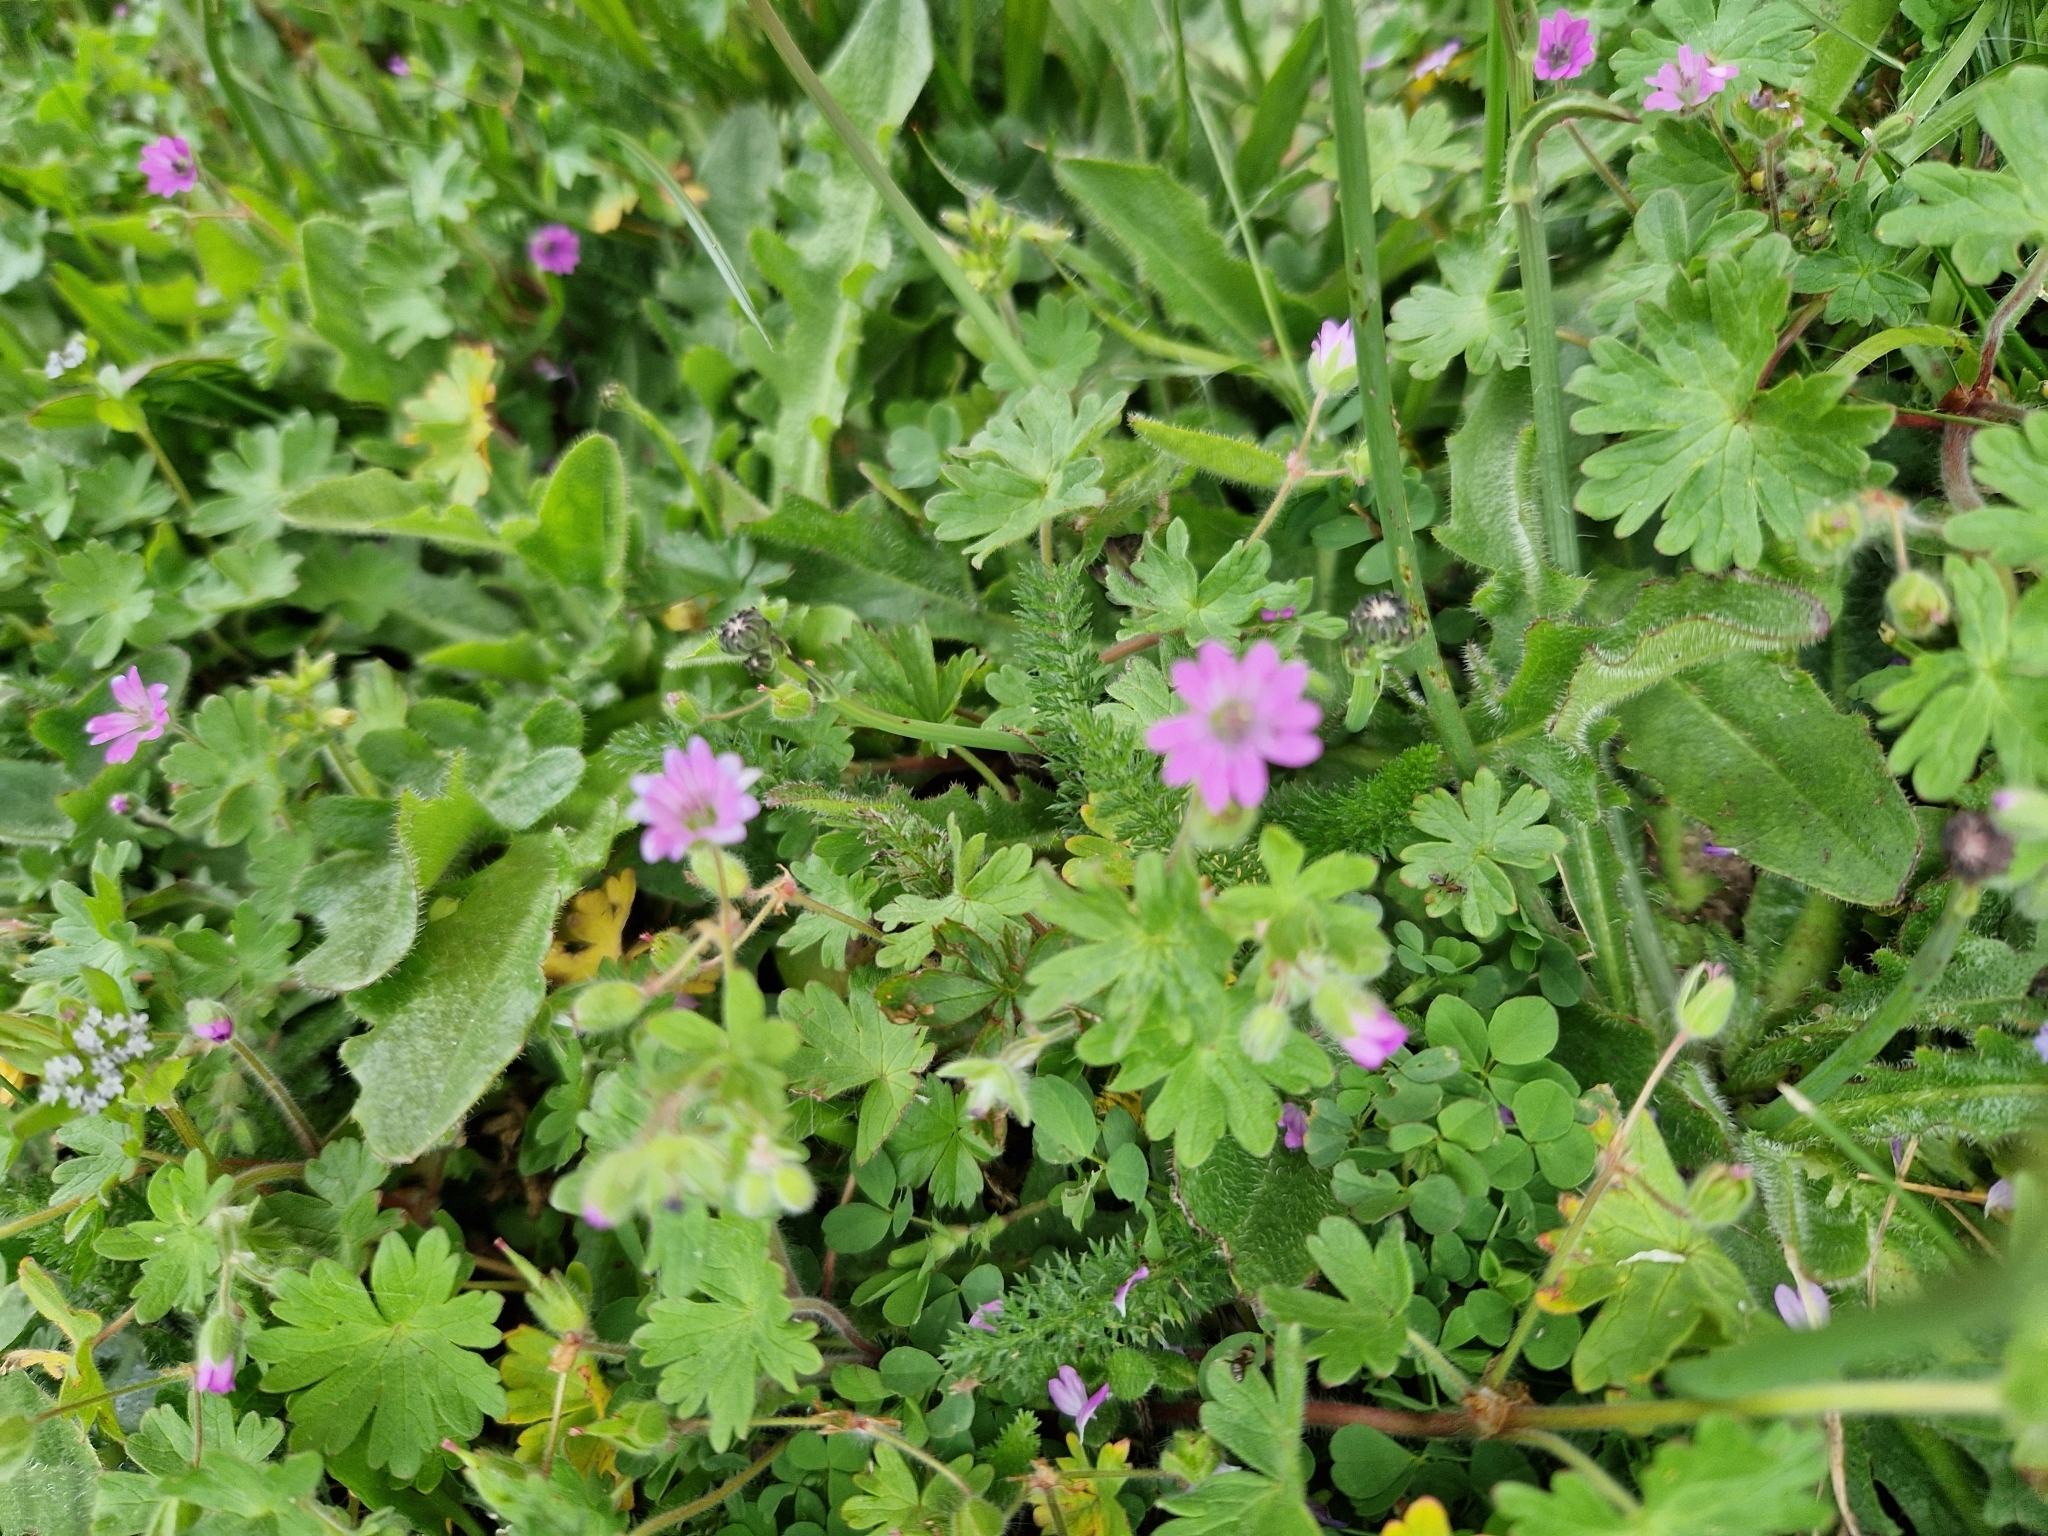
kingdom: Plantae
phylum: Tracheophyta
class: Magnoliopsida
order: Geraniales
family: Geraniaceae
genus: Geranium
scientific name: Geranium molle
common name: Dove's-foot crane's-bill
